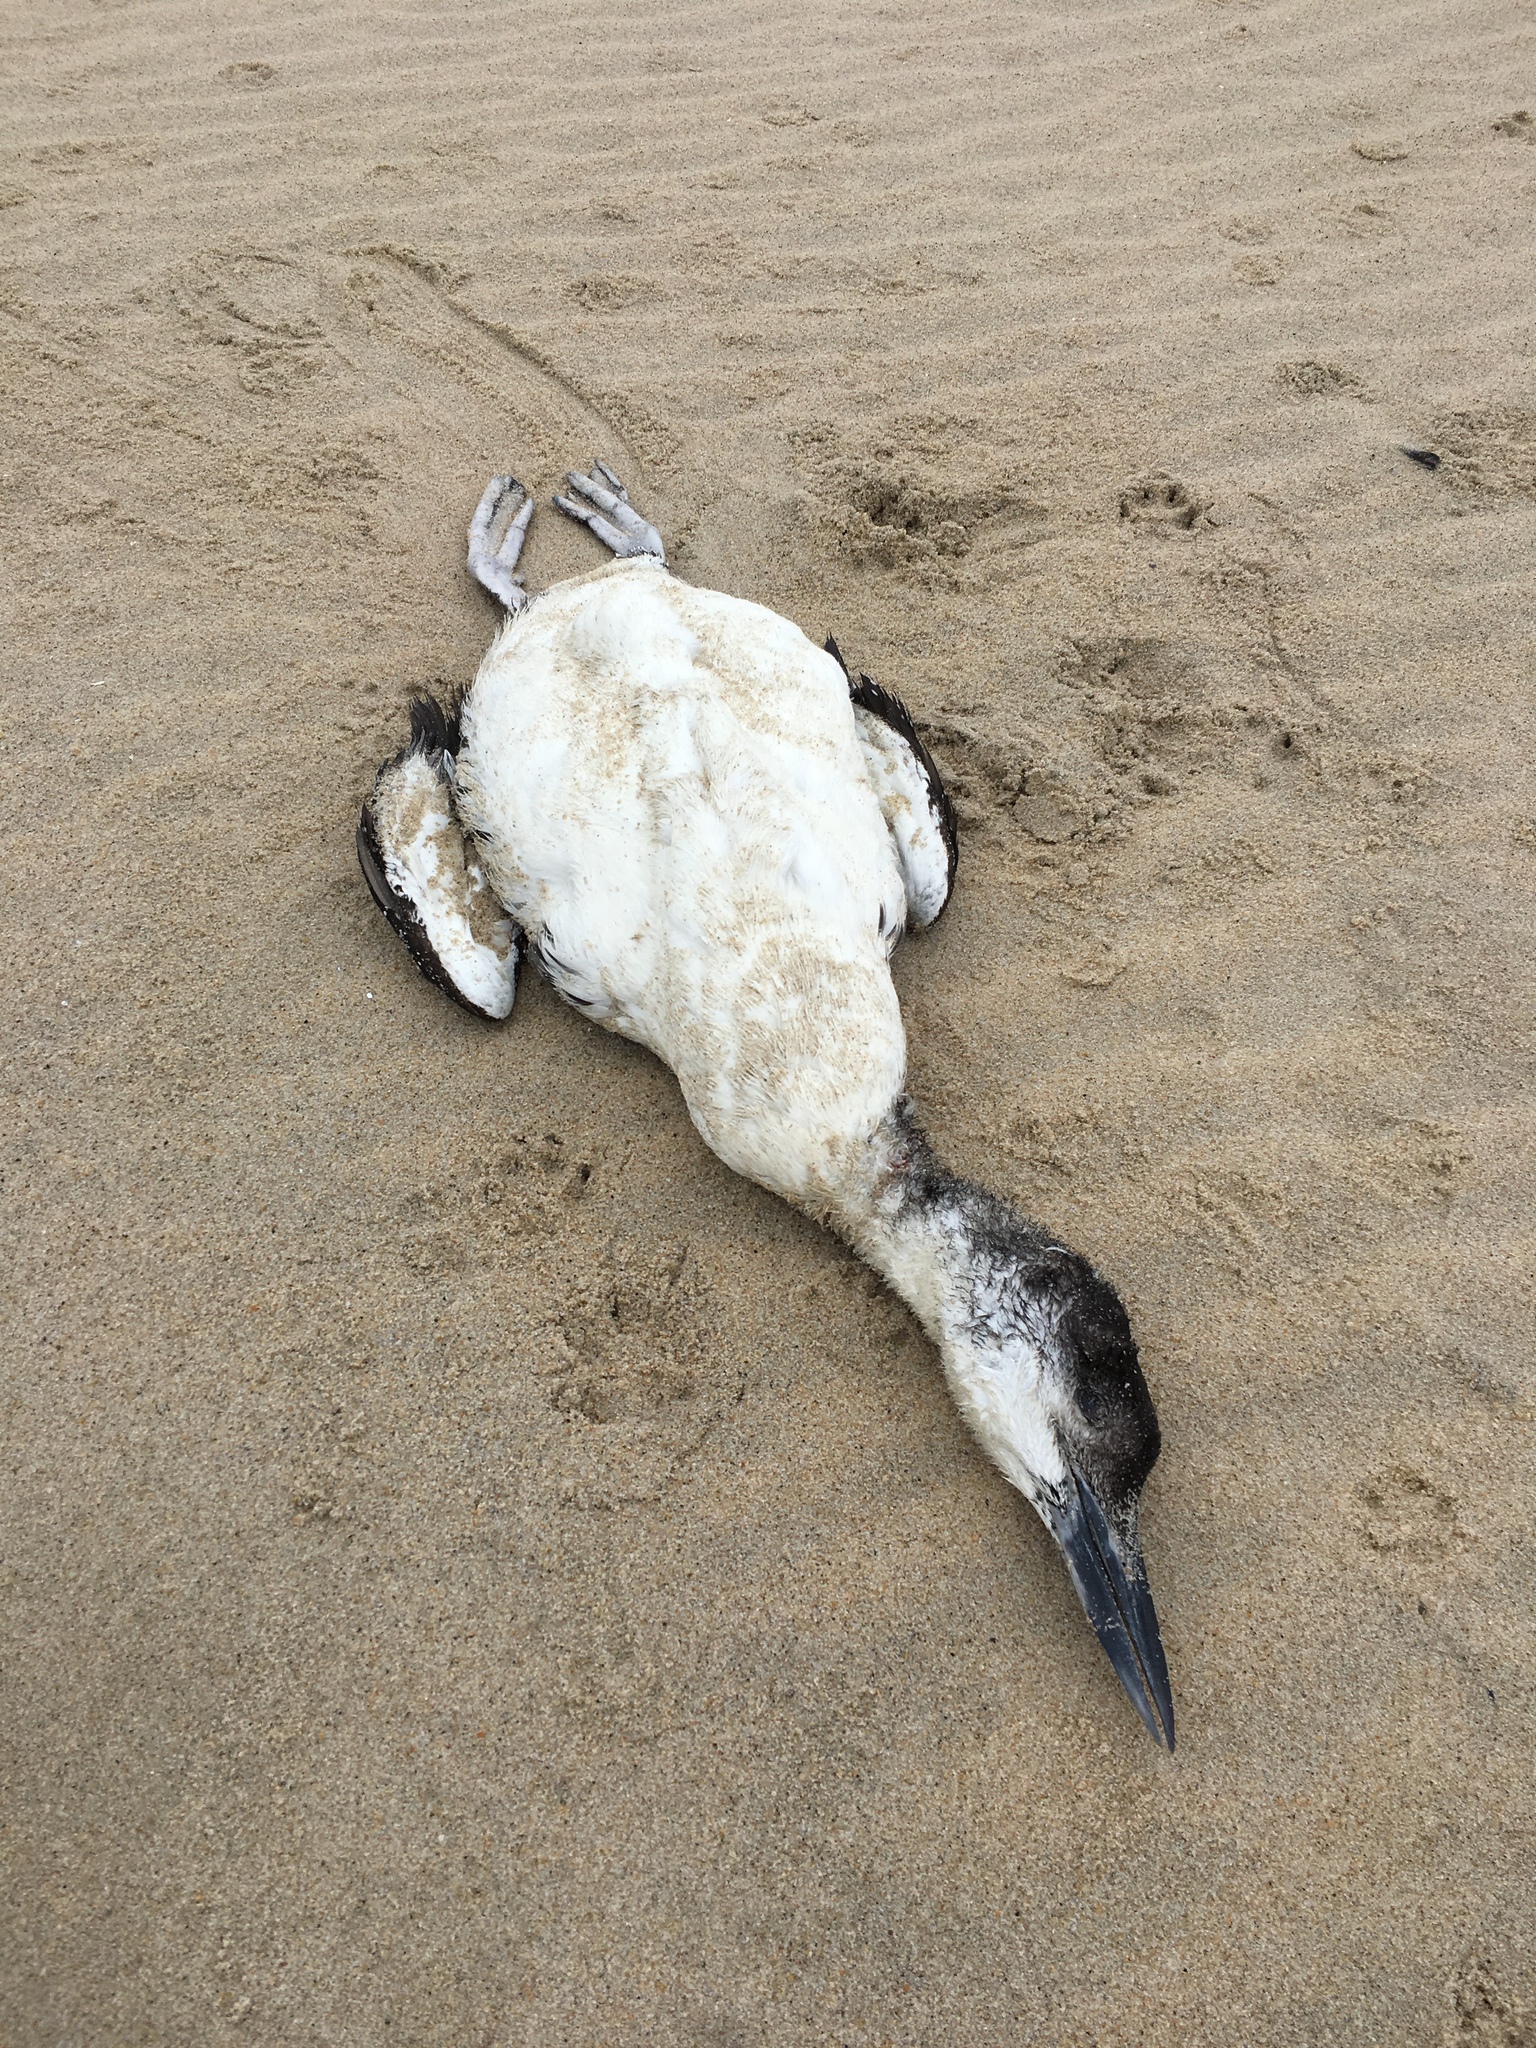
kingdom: Animalia
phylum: Chordata
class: Aves
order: Gaviiformes
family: Gaviidae
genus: Gavia
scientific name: Gavia immer
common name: Common loon
